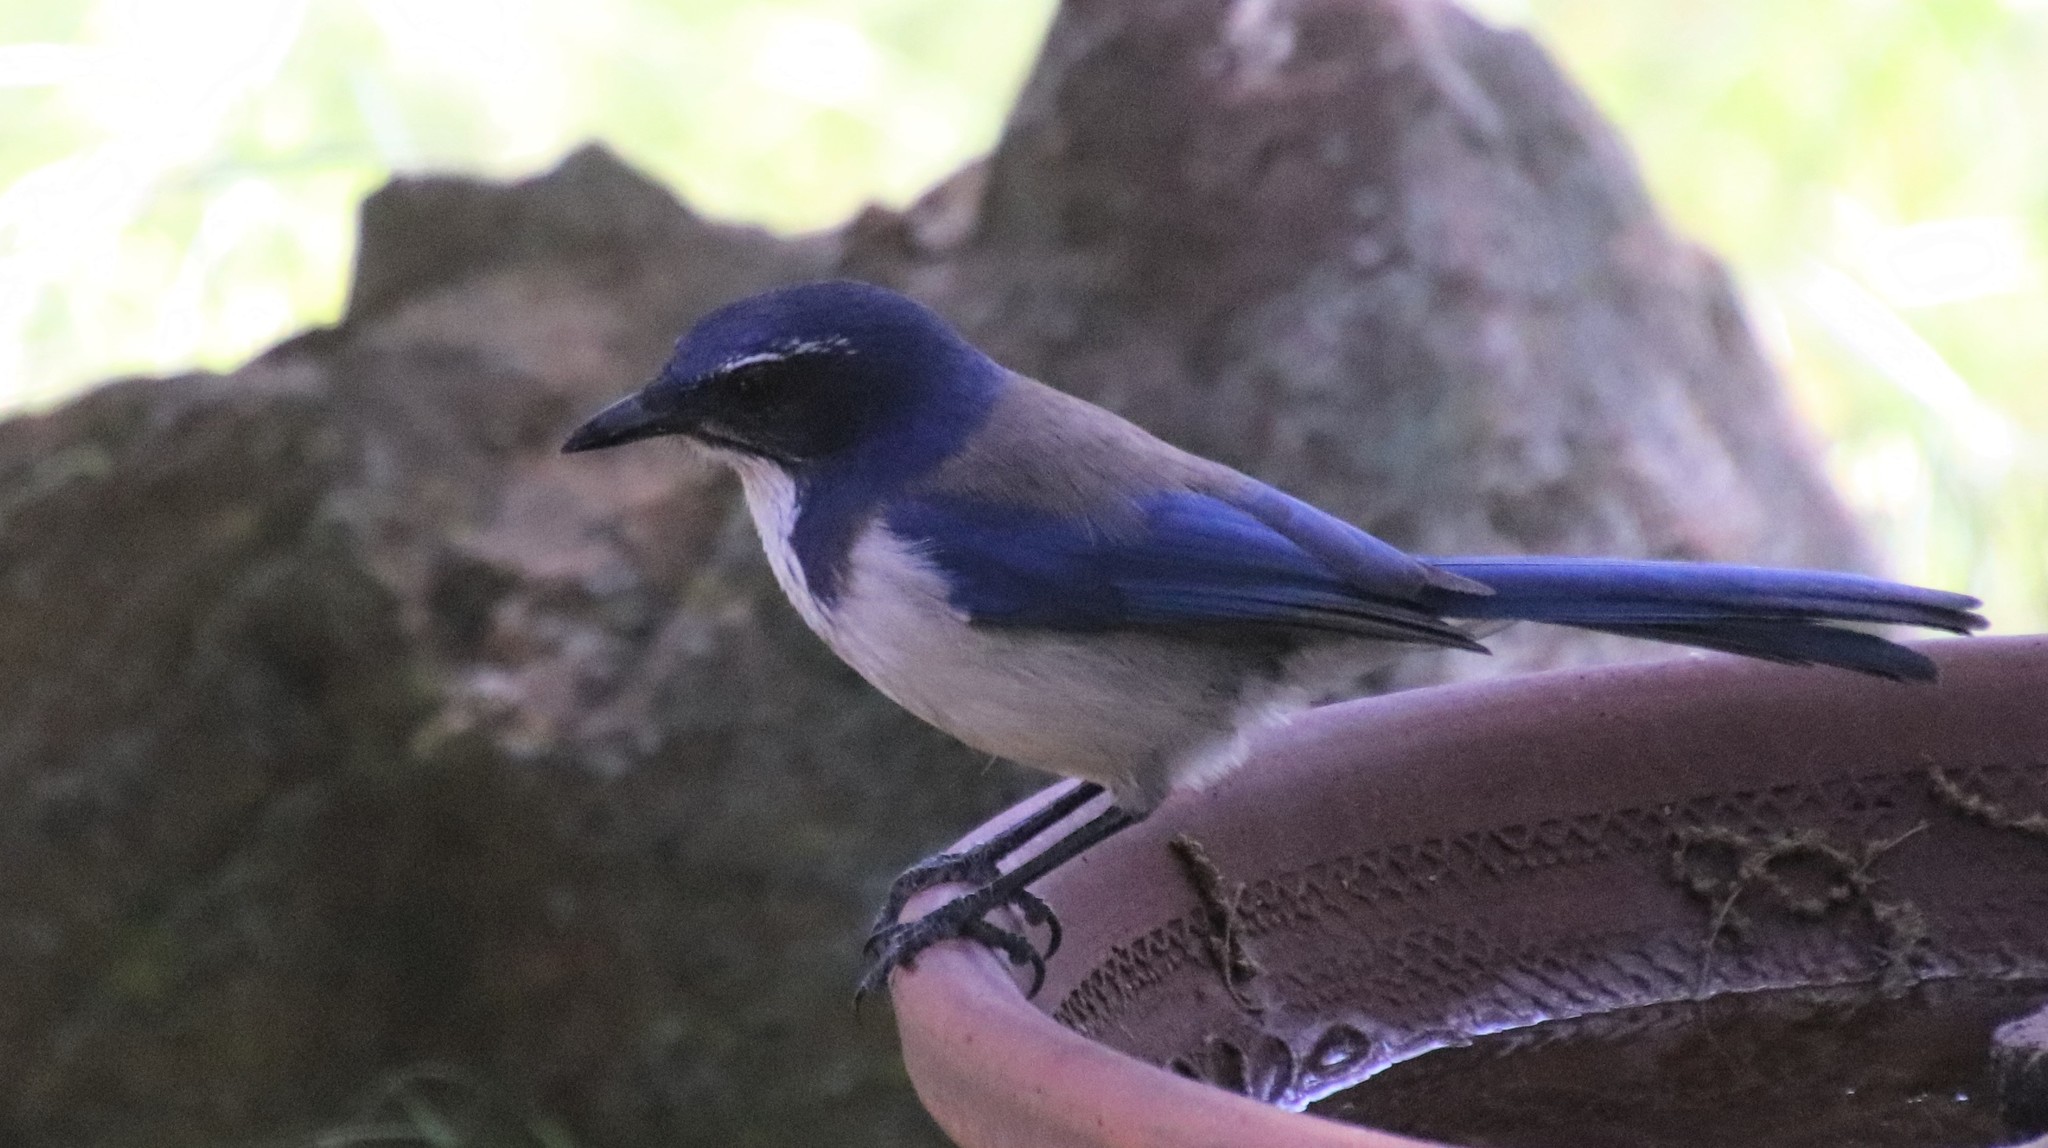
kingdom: Animalia
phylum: Chordata
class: Aves
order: Passeriformes
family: Corvidae
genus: Aphelocoma
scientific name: Aphelocoma californica
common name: California scrub-jay
